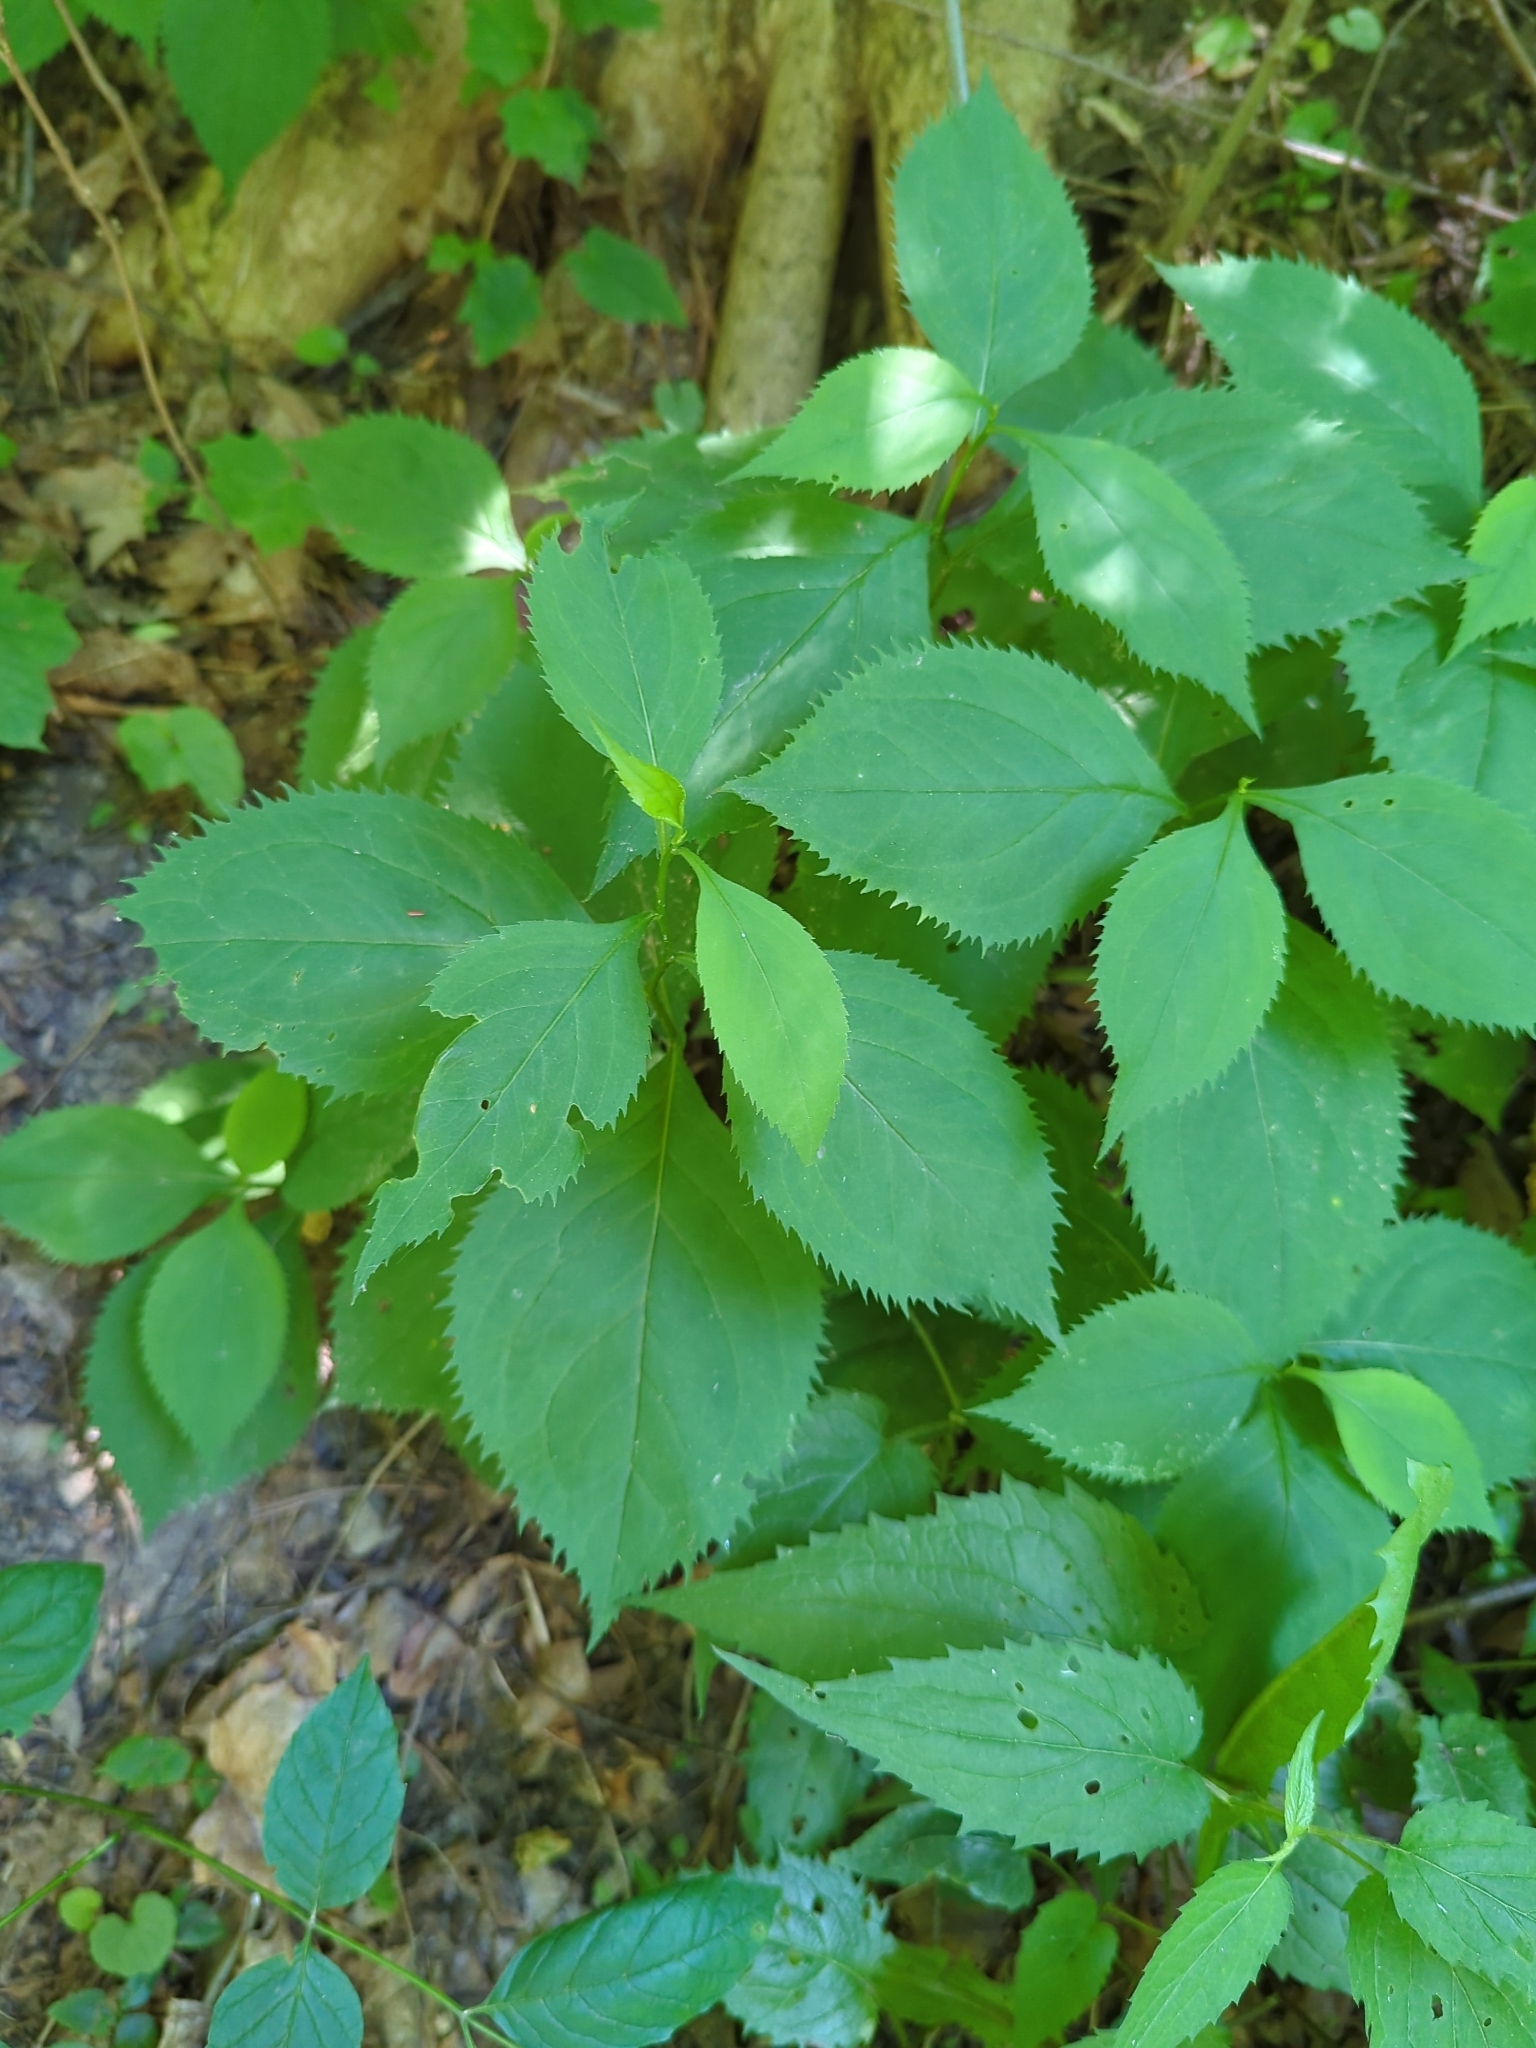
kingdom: Plantae
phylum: Tracheophyta
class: Magnoliopsida
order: Asterales
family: Asteraceae
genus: Solidago
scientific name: Solidago flexicaulis
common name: Zig-zag goldenrod
